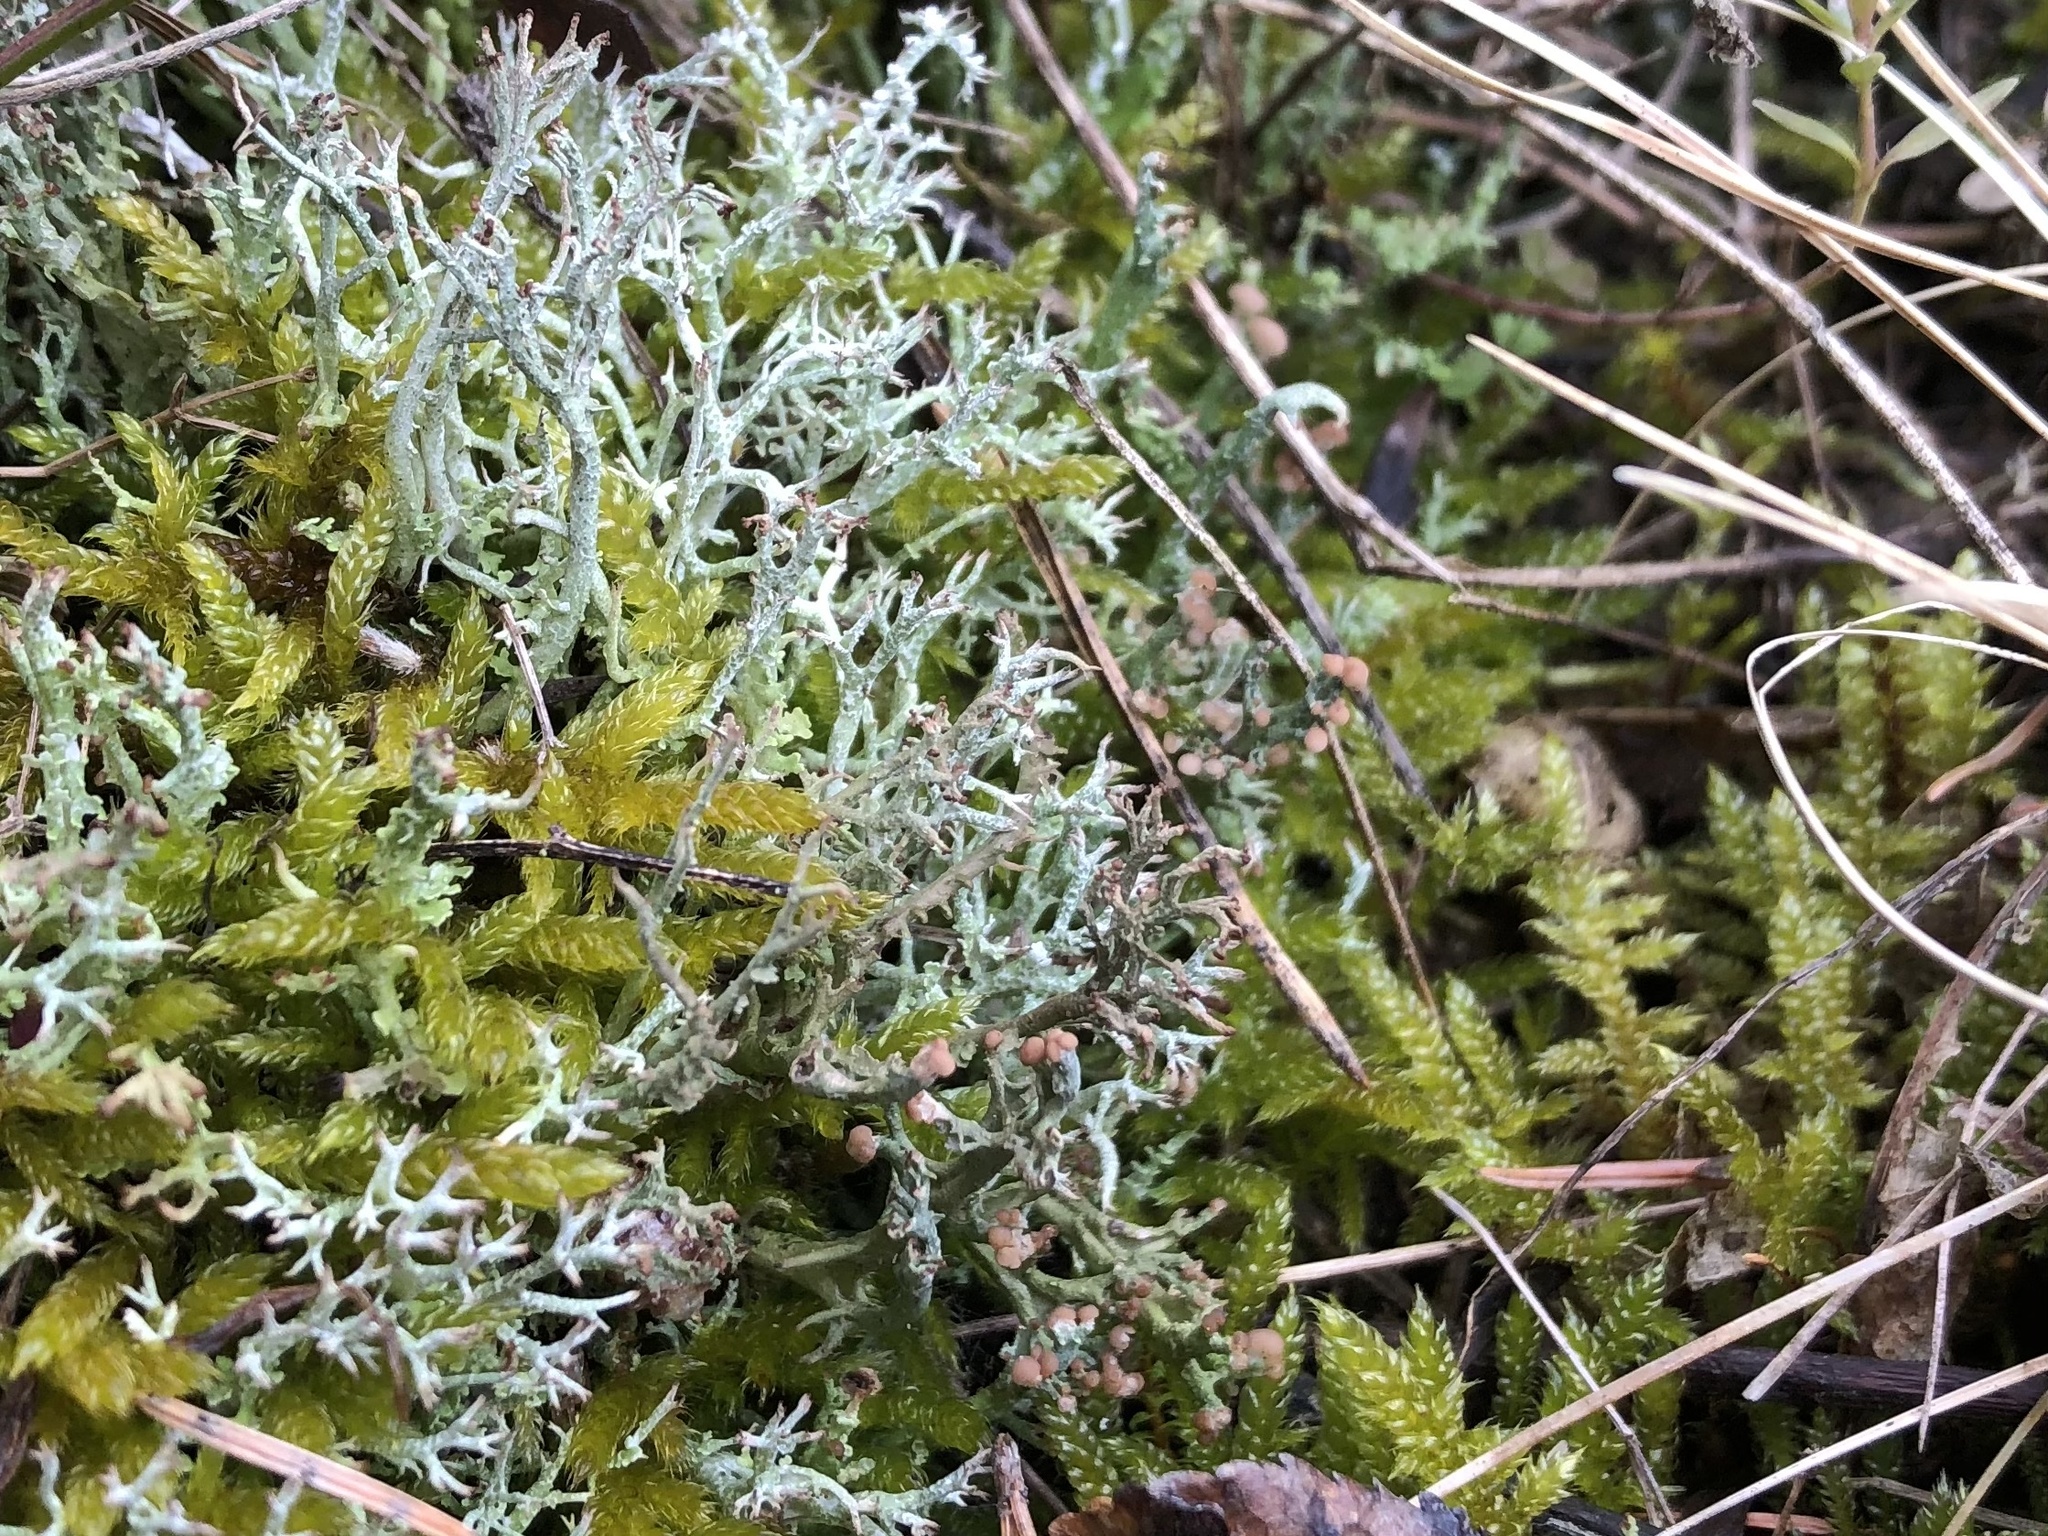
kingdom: Fungi
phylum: Ascomycota
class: Lecanoromycetes
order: Lecanorales
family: Cladoniaceae
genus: Cladonia
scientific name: Cladonia furcata
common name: Many-forked cladonia
